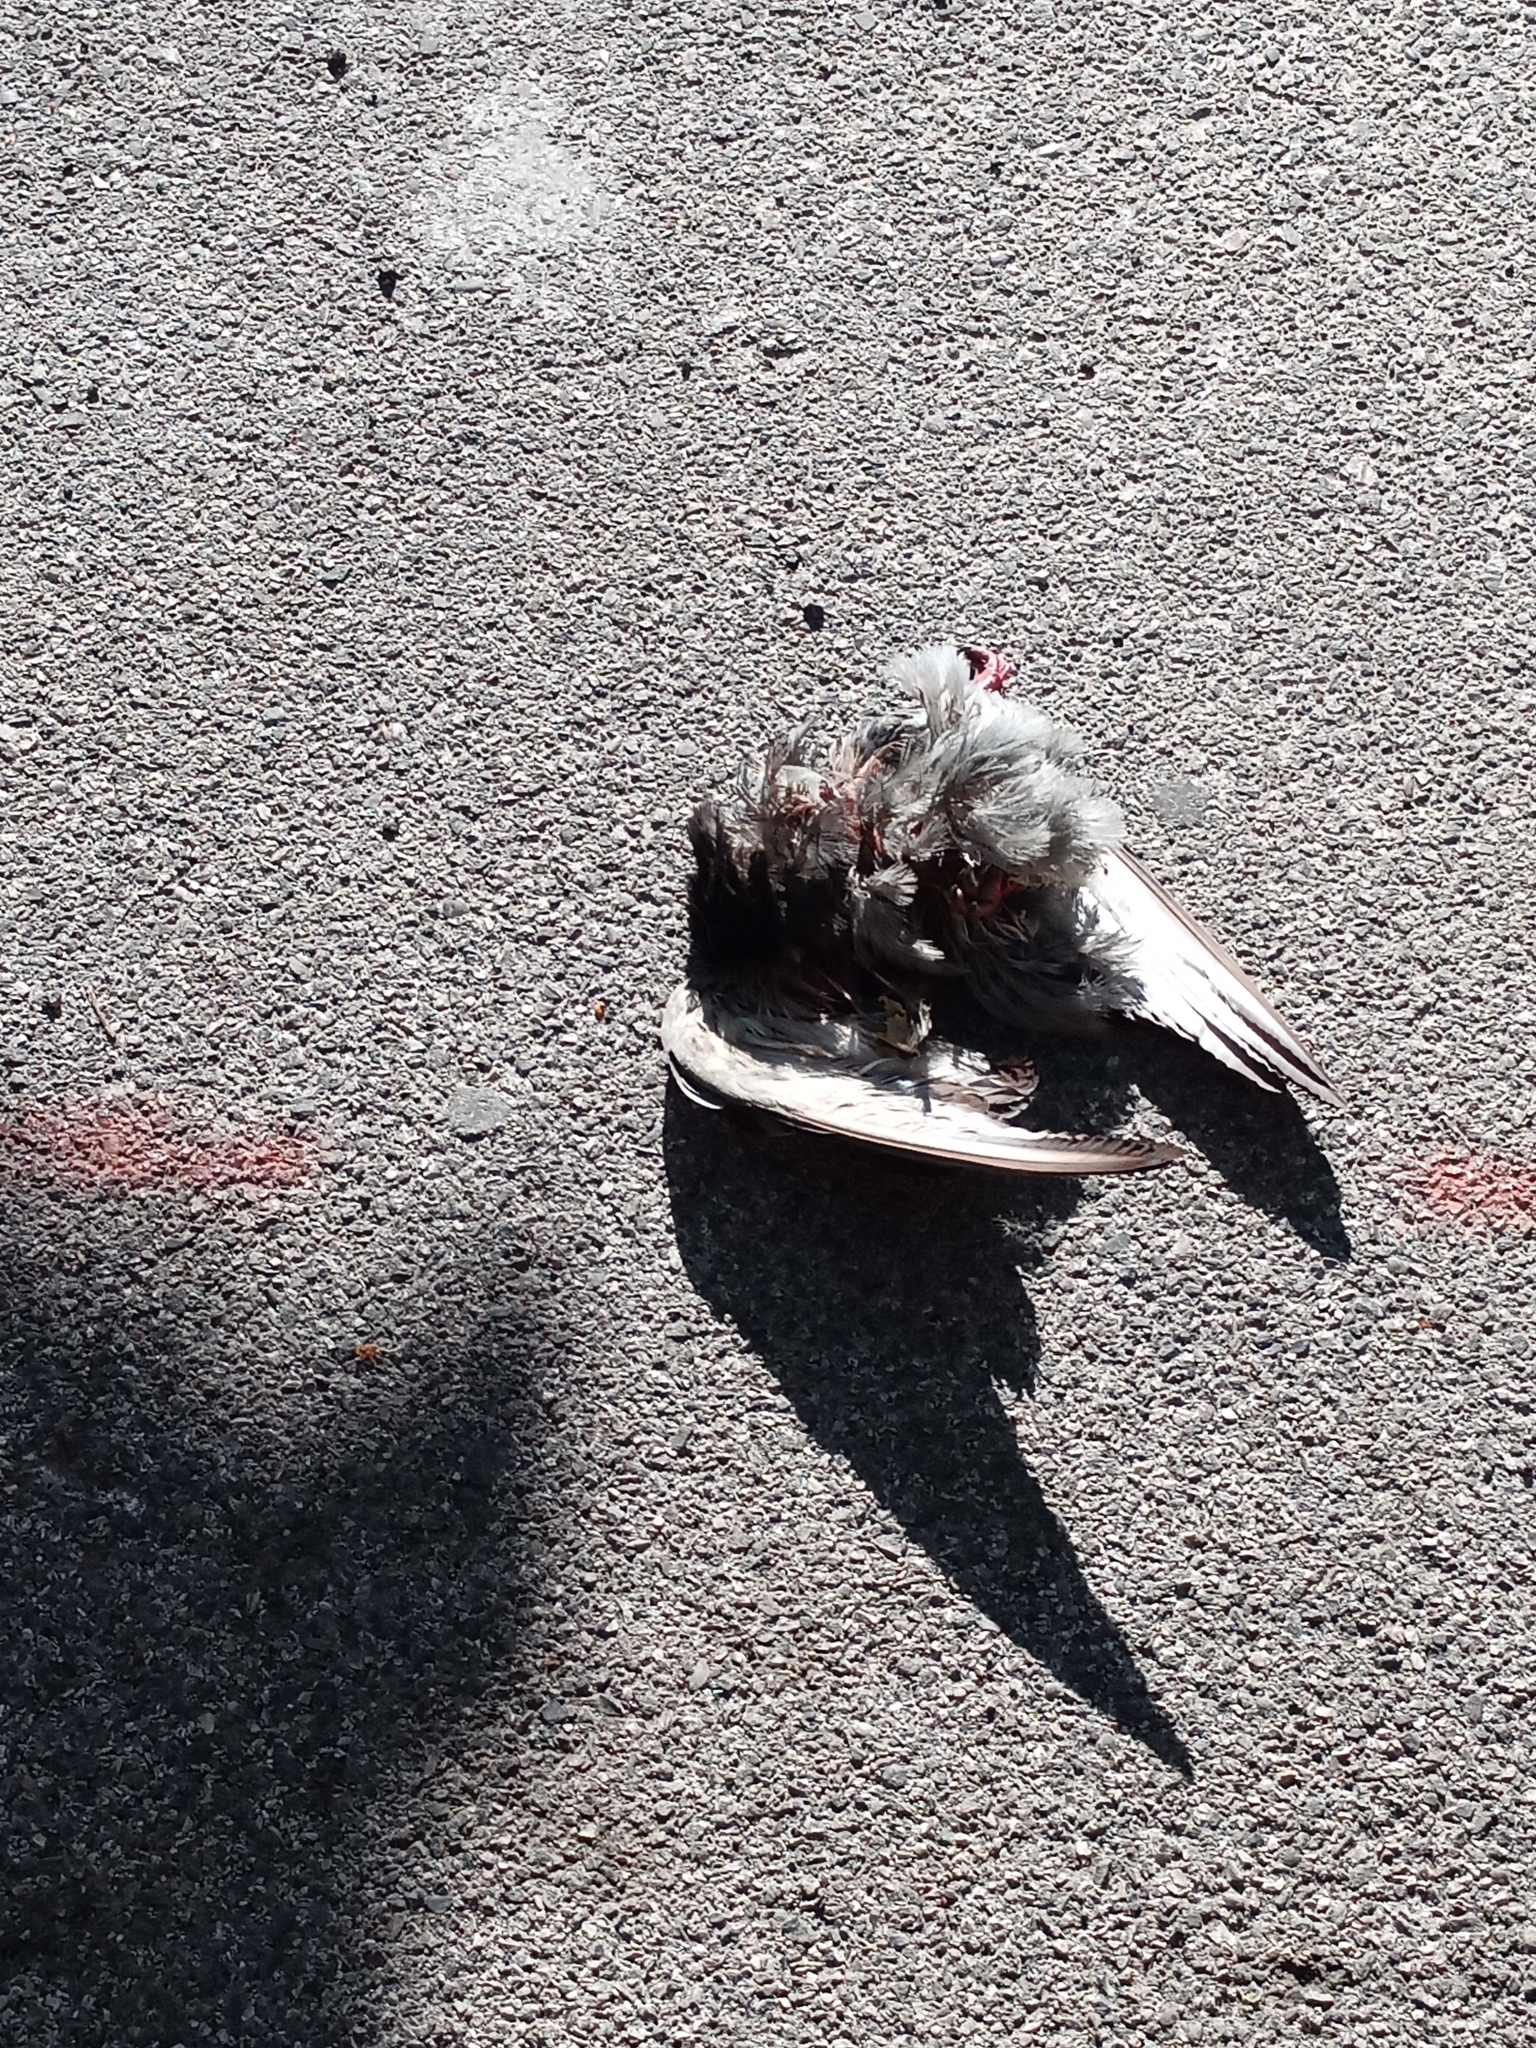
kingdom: Animalia
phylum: Chordata
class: Aves
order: Columbiformes
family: Columbidae
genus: Columba
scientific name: Columba livia
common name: Rock pigeon
